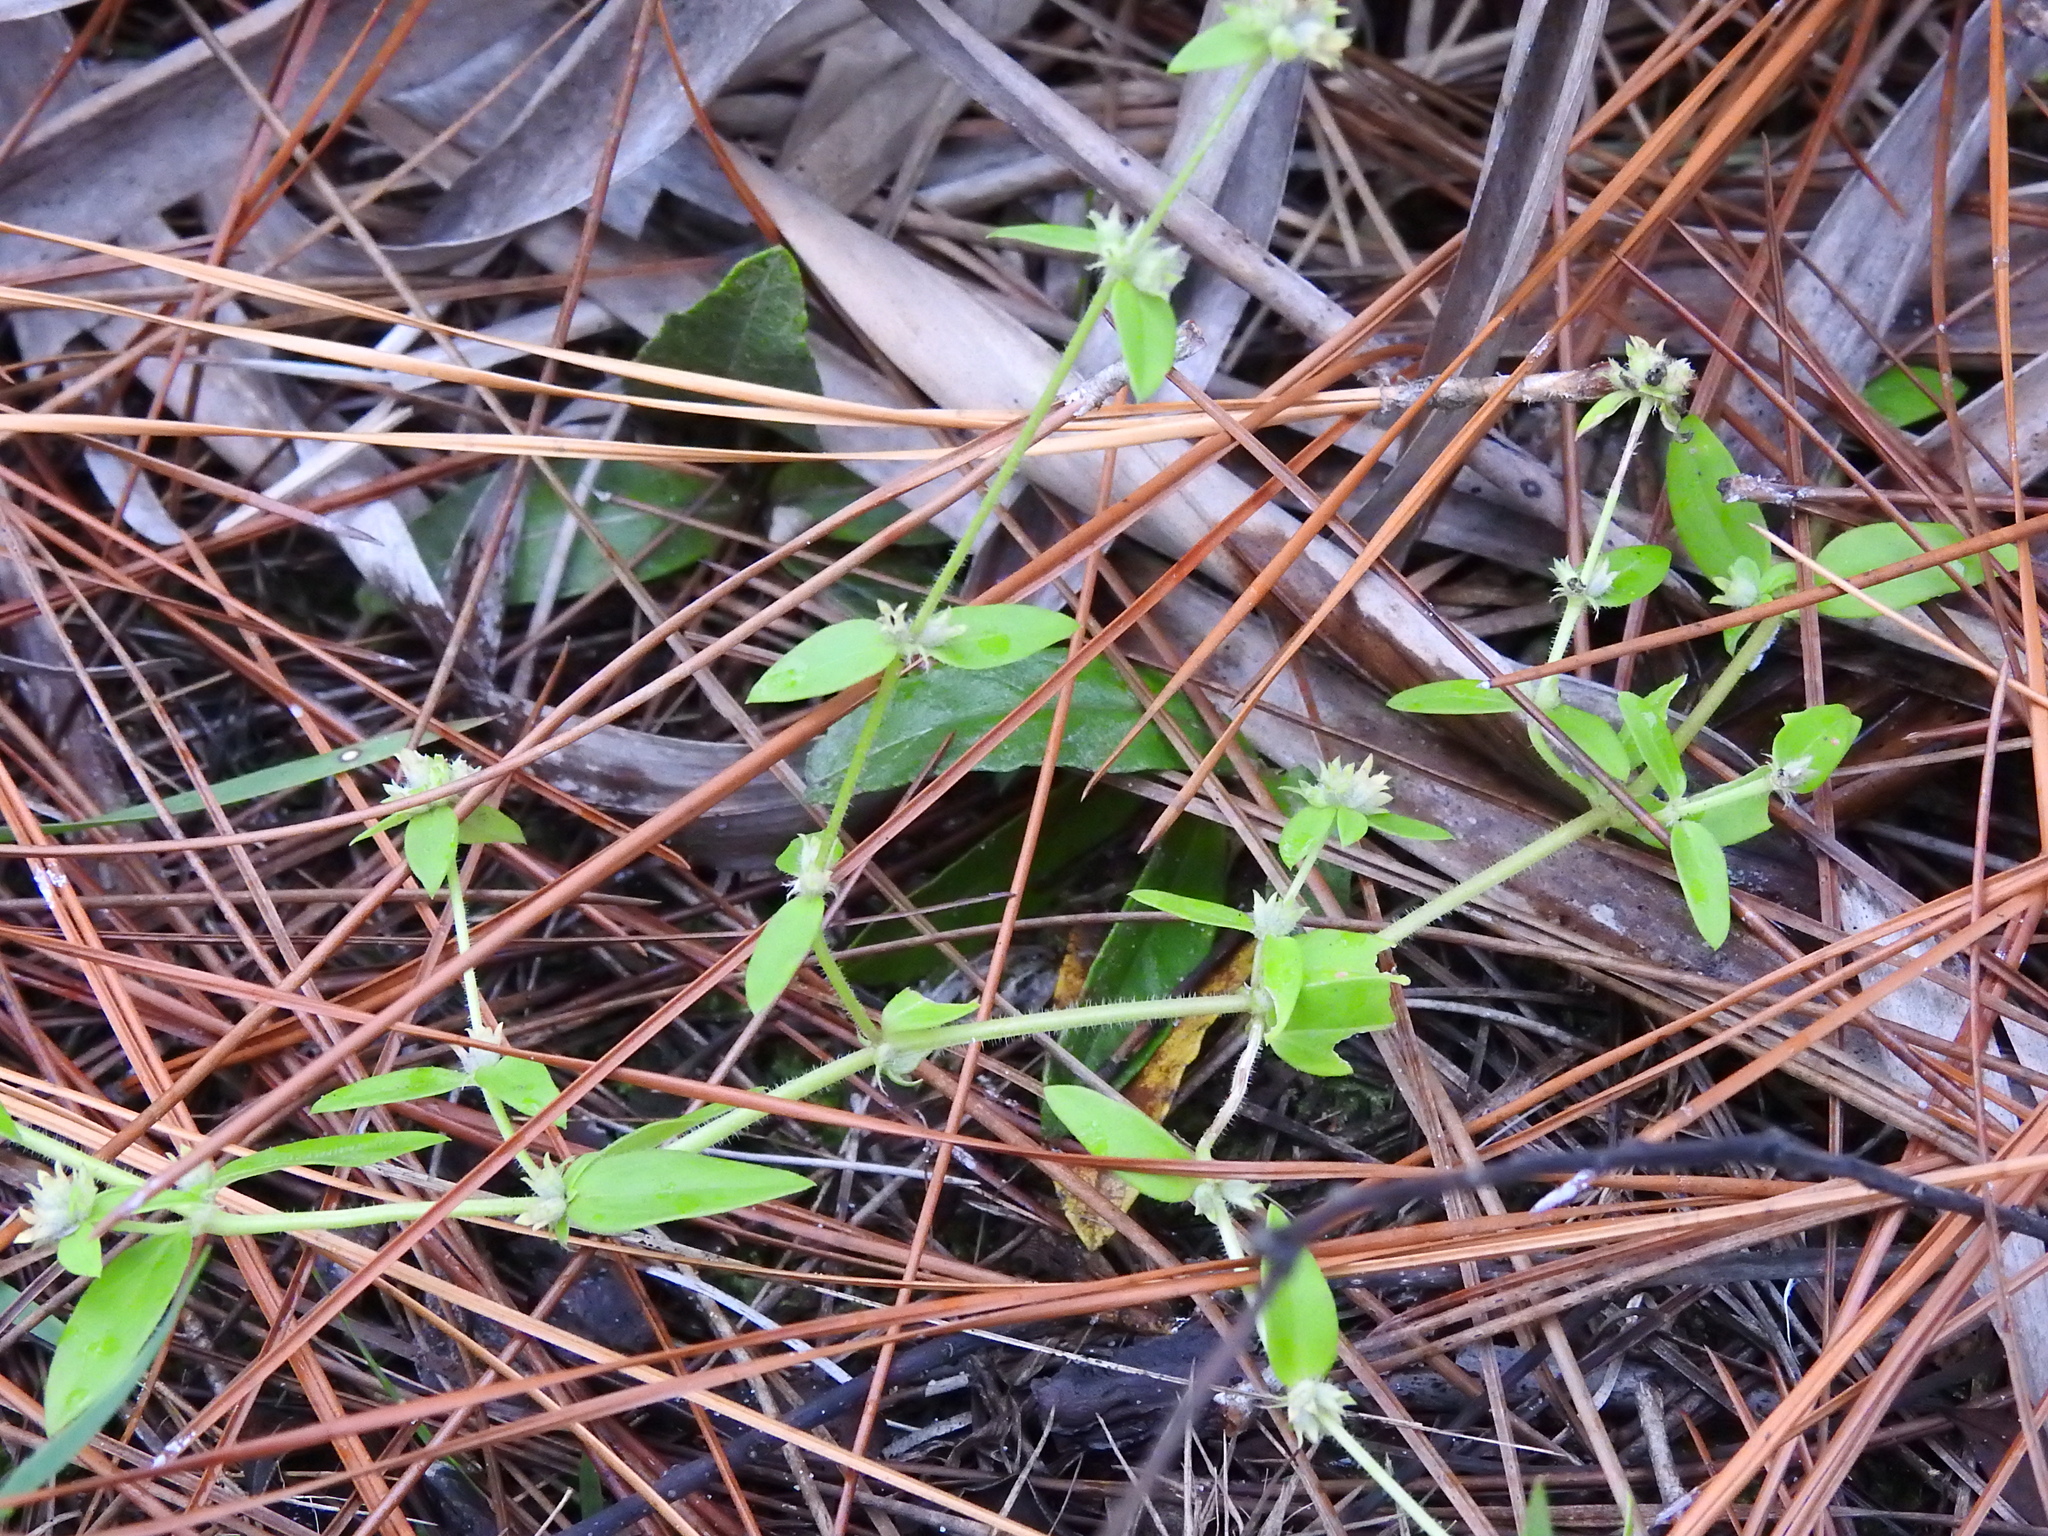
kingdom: Plantae
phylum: Tracheophyta
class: Magnoliopsida
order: Gentianales
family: Rubiaceae
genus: Edrastima
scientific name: Edrastima uniflora
